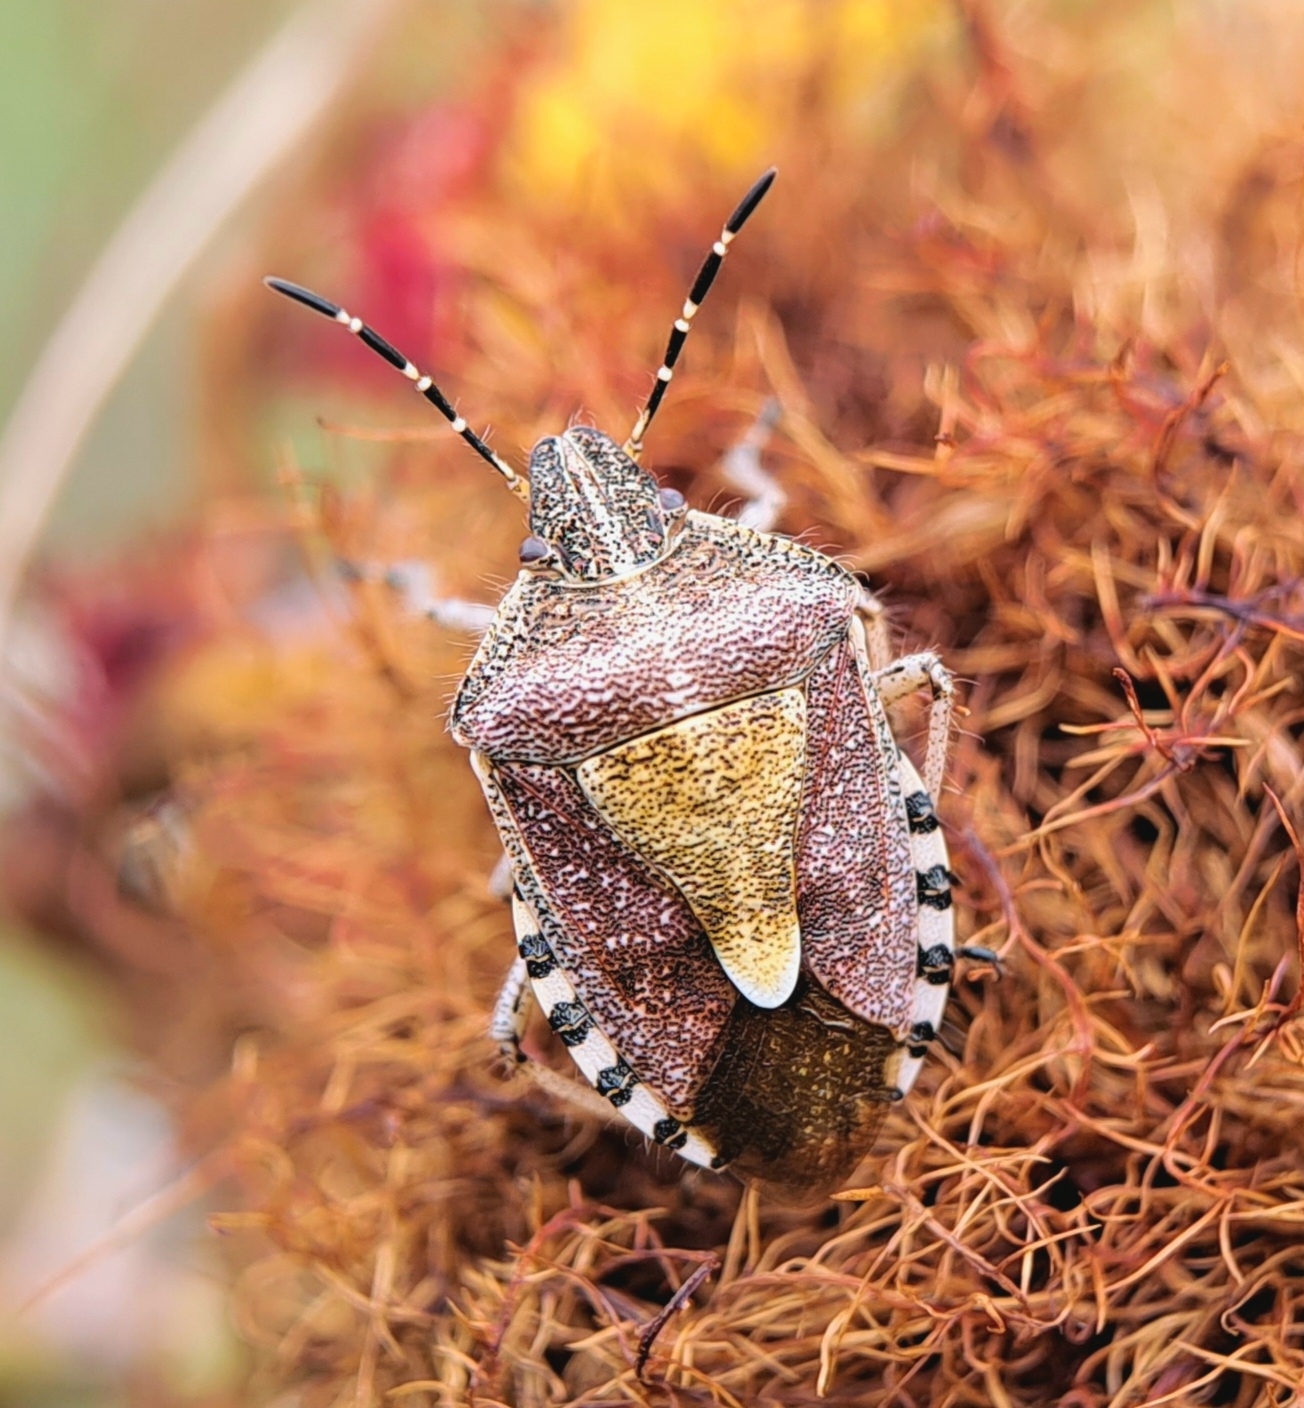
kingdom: Animalia
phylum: Arthropoda
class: Insecta
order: Hemiptera
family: Pentatomidae
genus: Dolycoris
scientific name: Dolycoris baccarum
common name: Sloe bug
